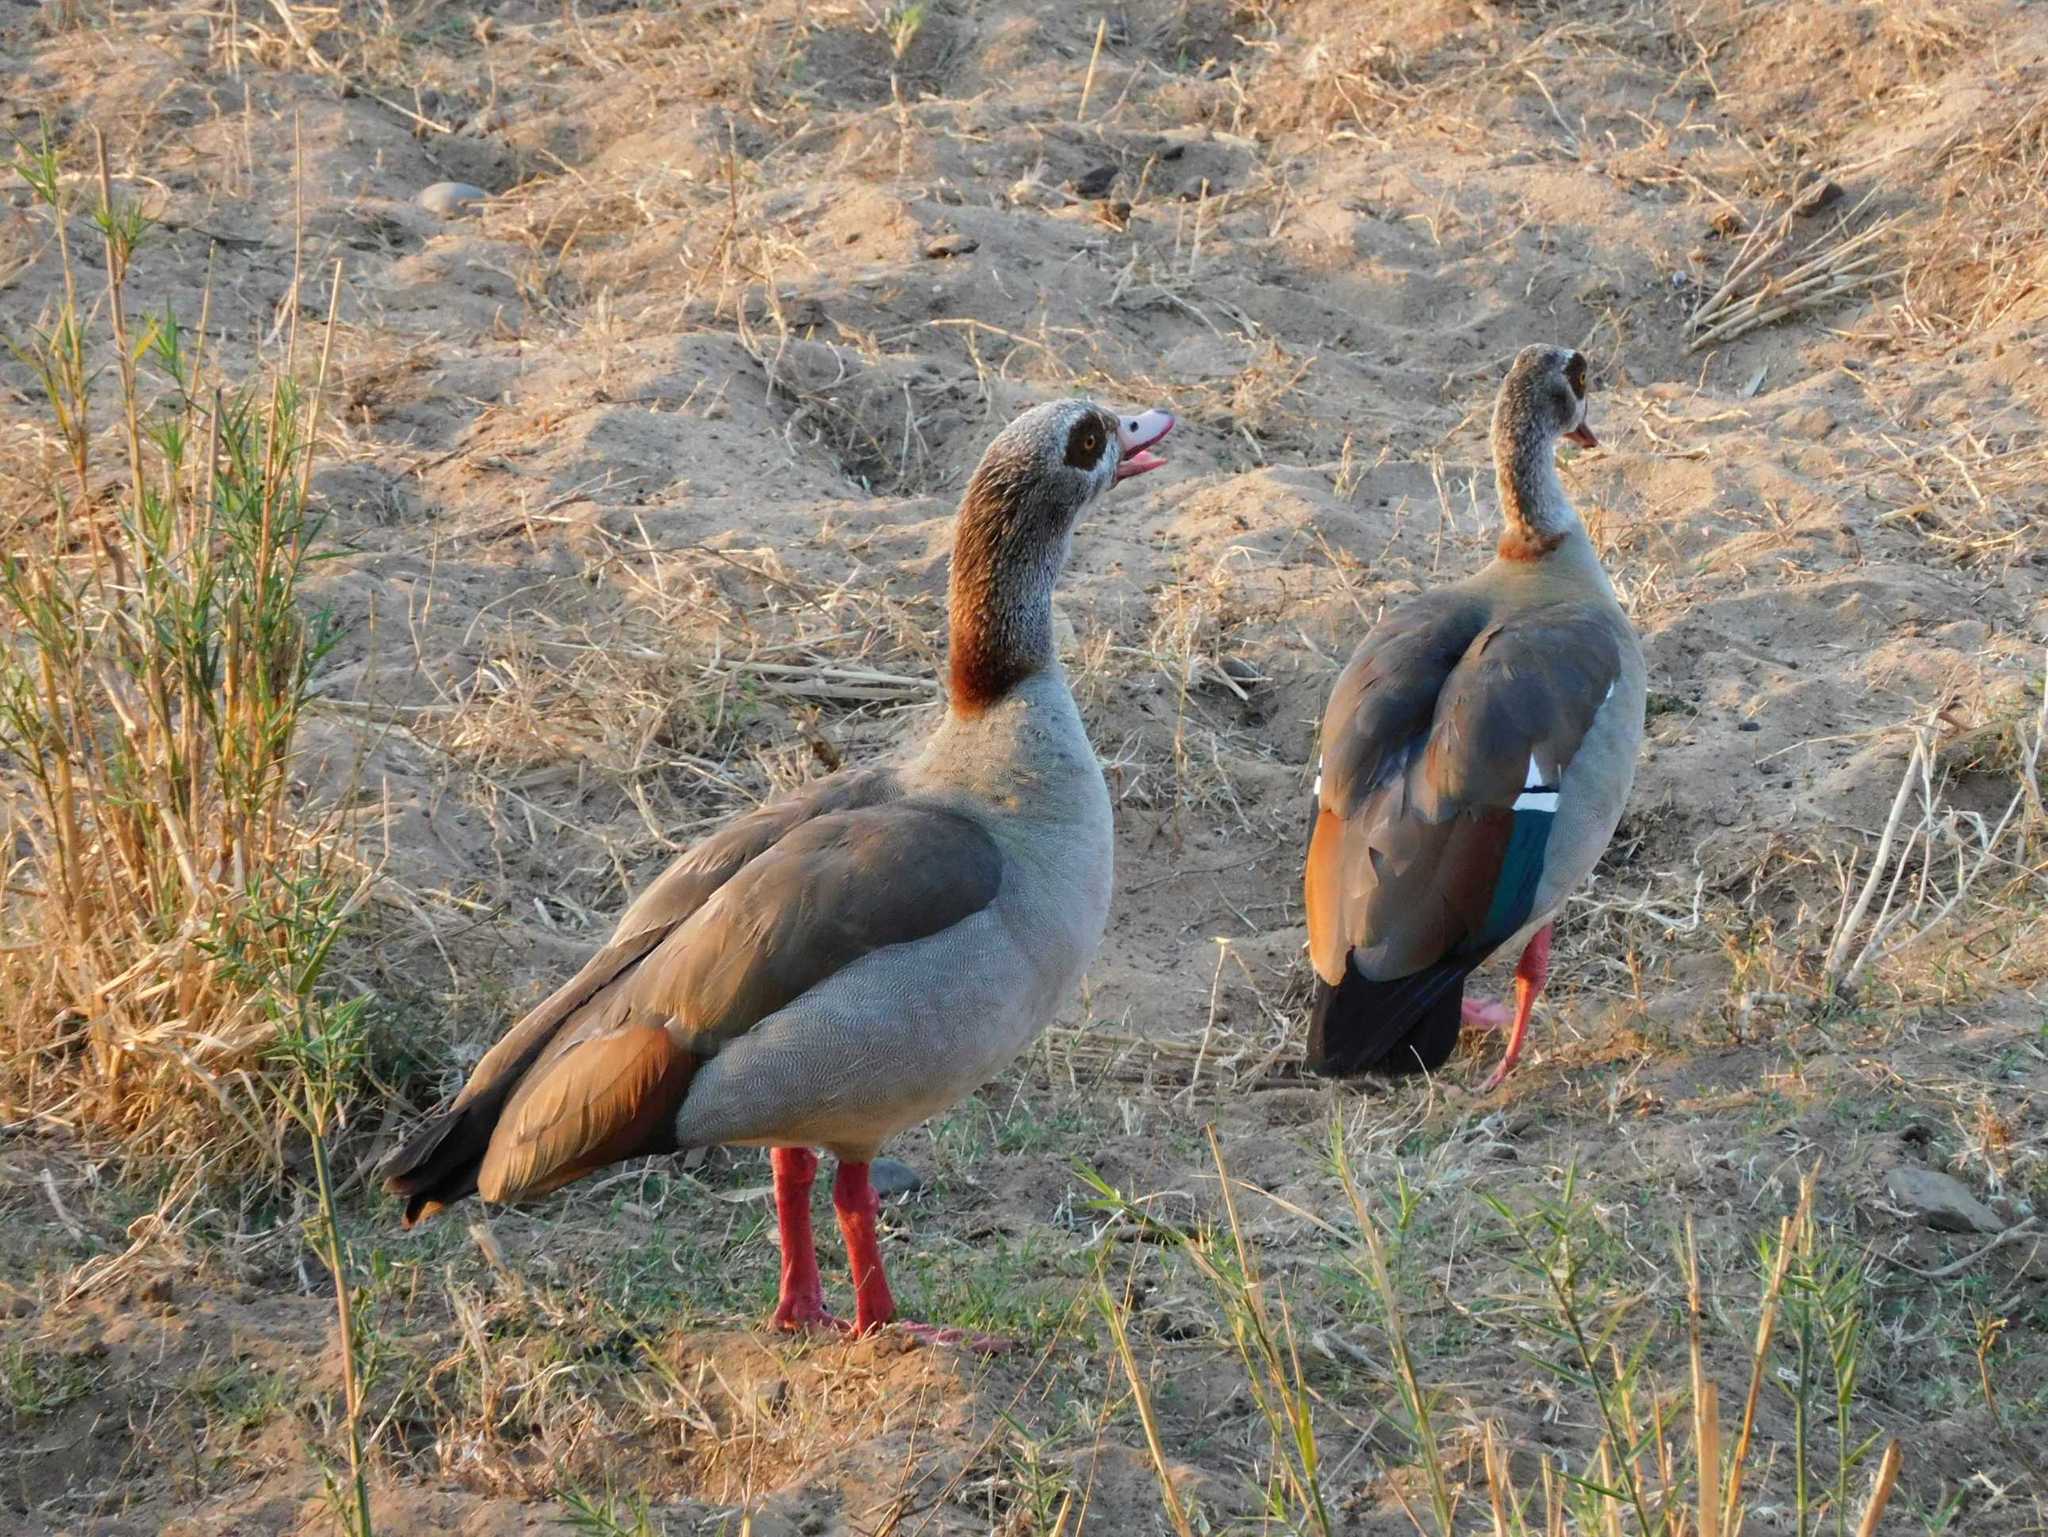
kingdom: Animalia
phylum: Chordata
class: Aves
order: Anseriformes
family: Anatidae
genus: Alopochen
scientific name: Alopochen aegyptiaca
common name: Egyptian goose
